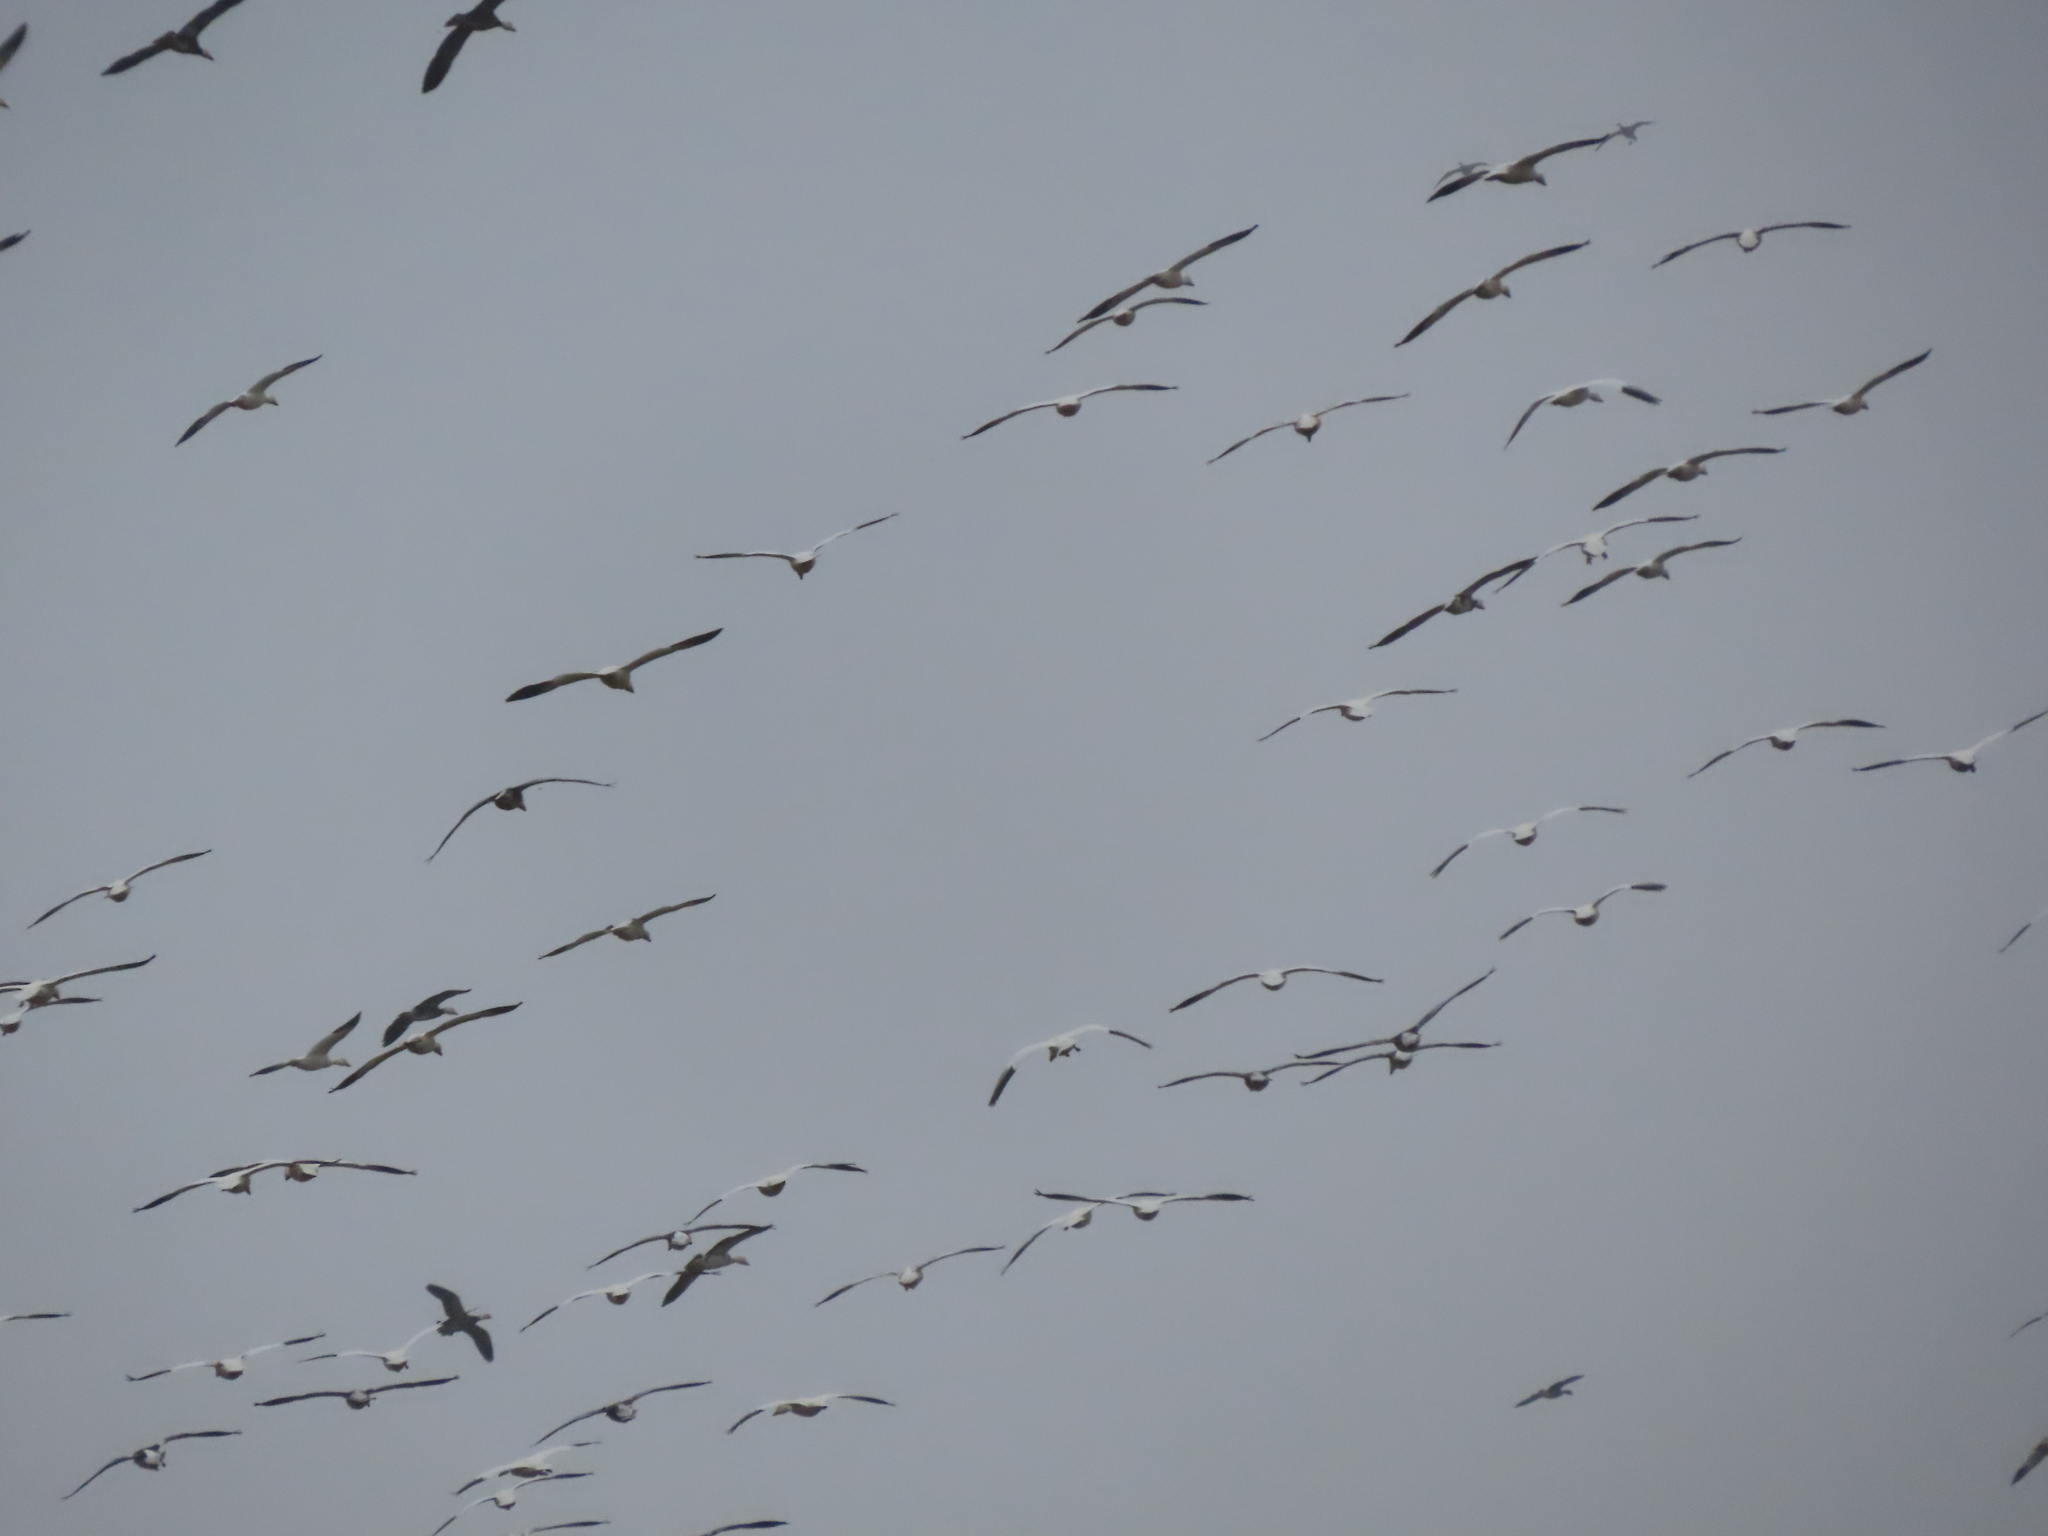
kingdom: Animalia
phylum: Chordata
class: Aves
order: Anseriformes
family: Anatidae
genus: Anser
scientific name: Anser caerulescens
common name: Snow goose
